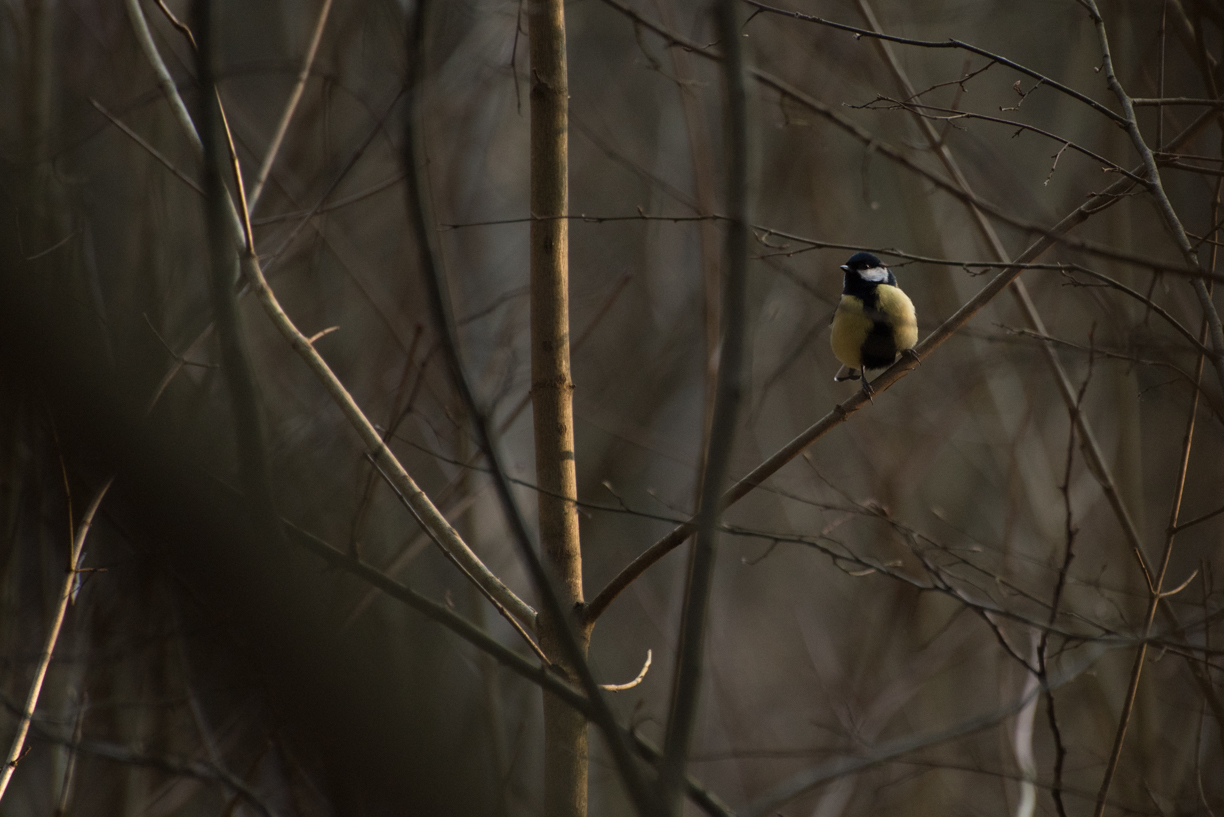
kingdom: Animalia
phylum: Chordata
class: Aves
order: Passeriformes
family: Paridae
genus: Parus
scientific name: Parus major
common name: Great tit
